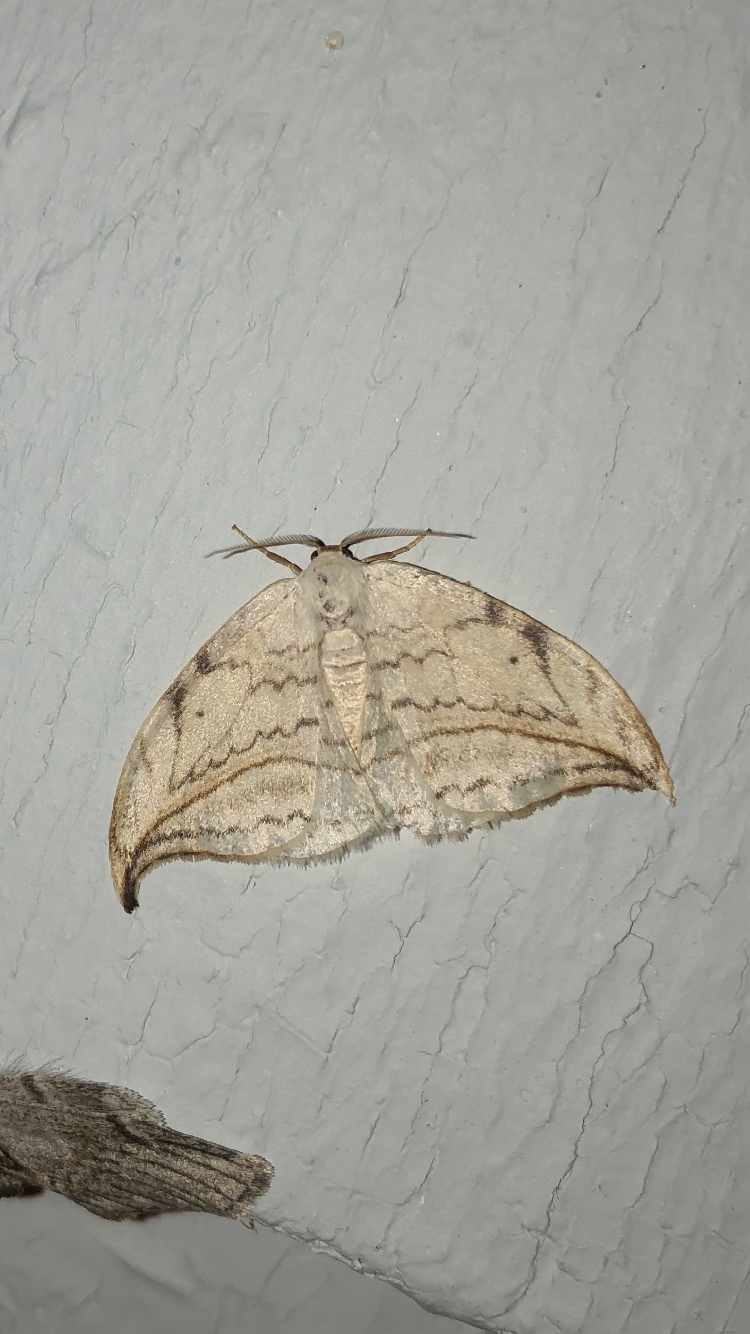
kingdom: Animalia
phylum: Arthropoda
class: Insecta
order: Lepidoptera
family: Drepanidae
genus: Drepana
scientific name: Drepana arcuata
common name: Arched hooktip moth
